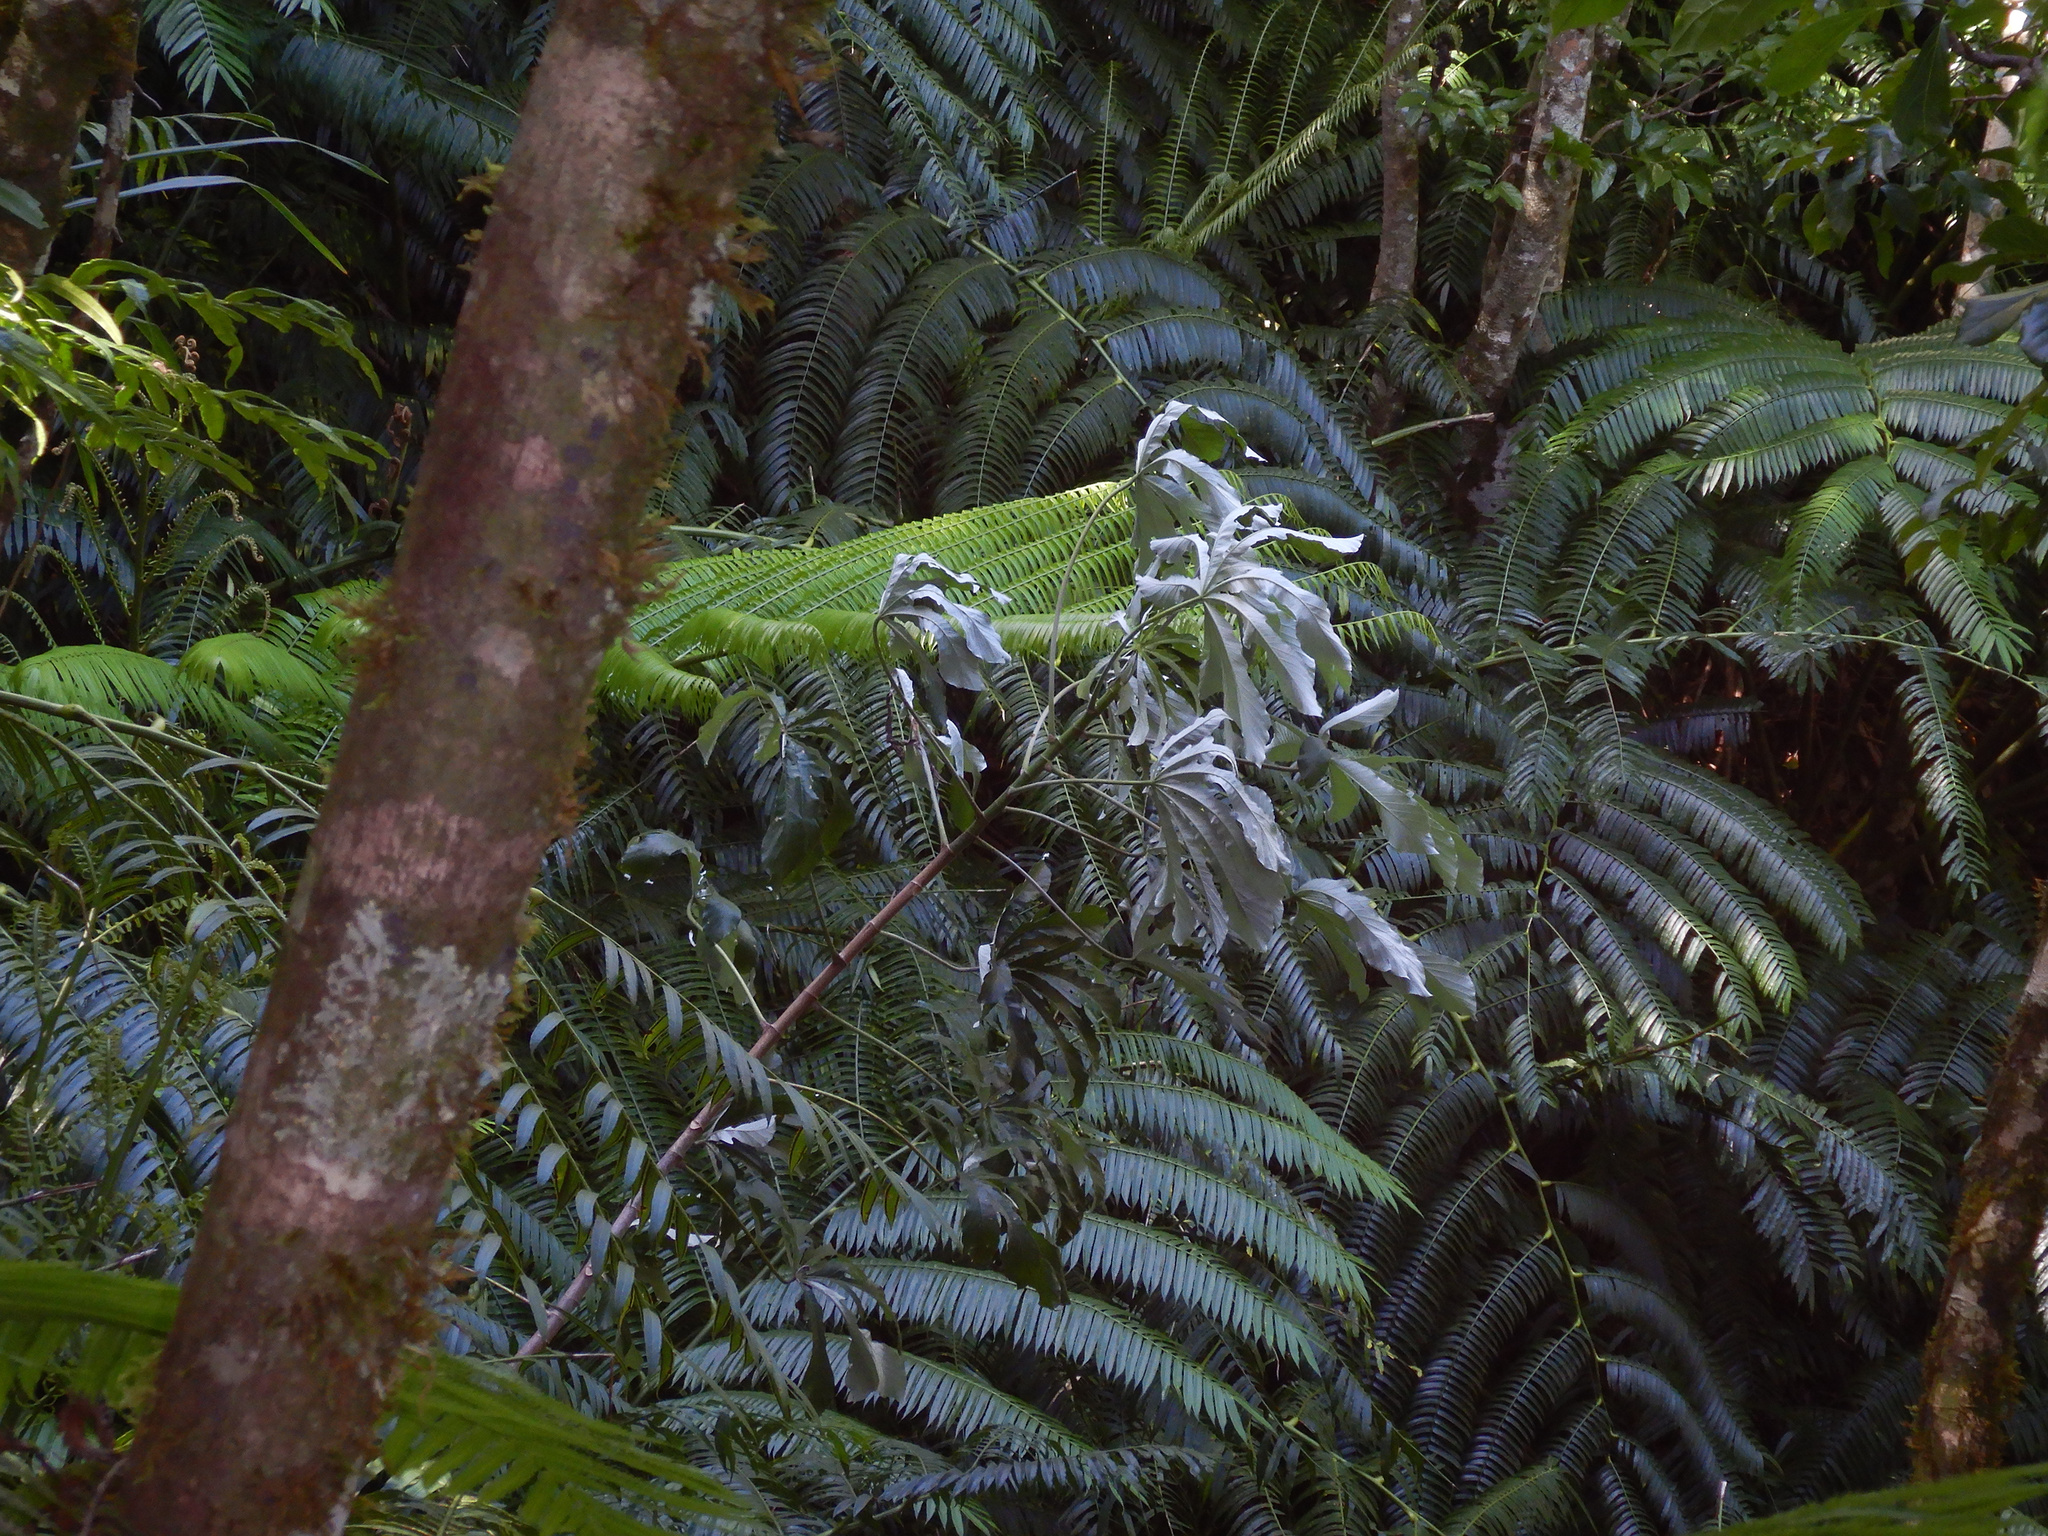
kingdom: Plantae
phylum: Tracheophyta
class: Magnoliopsida
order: Rosales
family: Urticaceae
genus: Cecropia
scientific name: Cecropia pachystachya
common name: Ambay pumpwood
